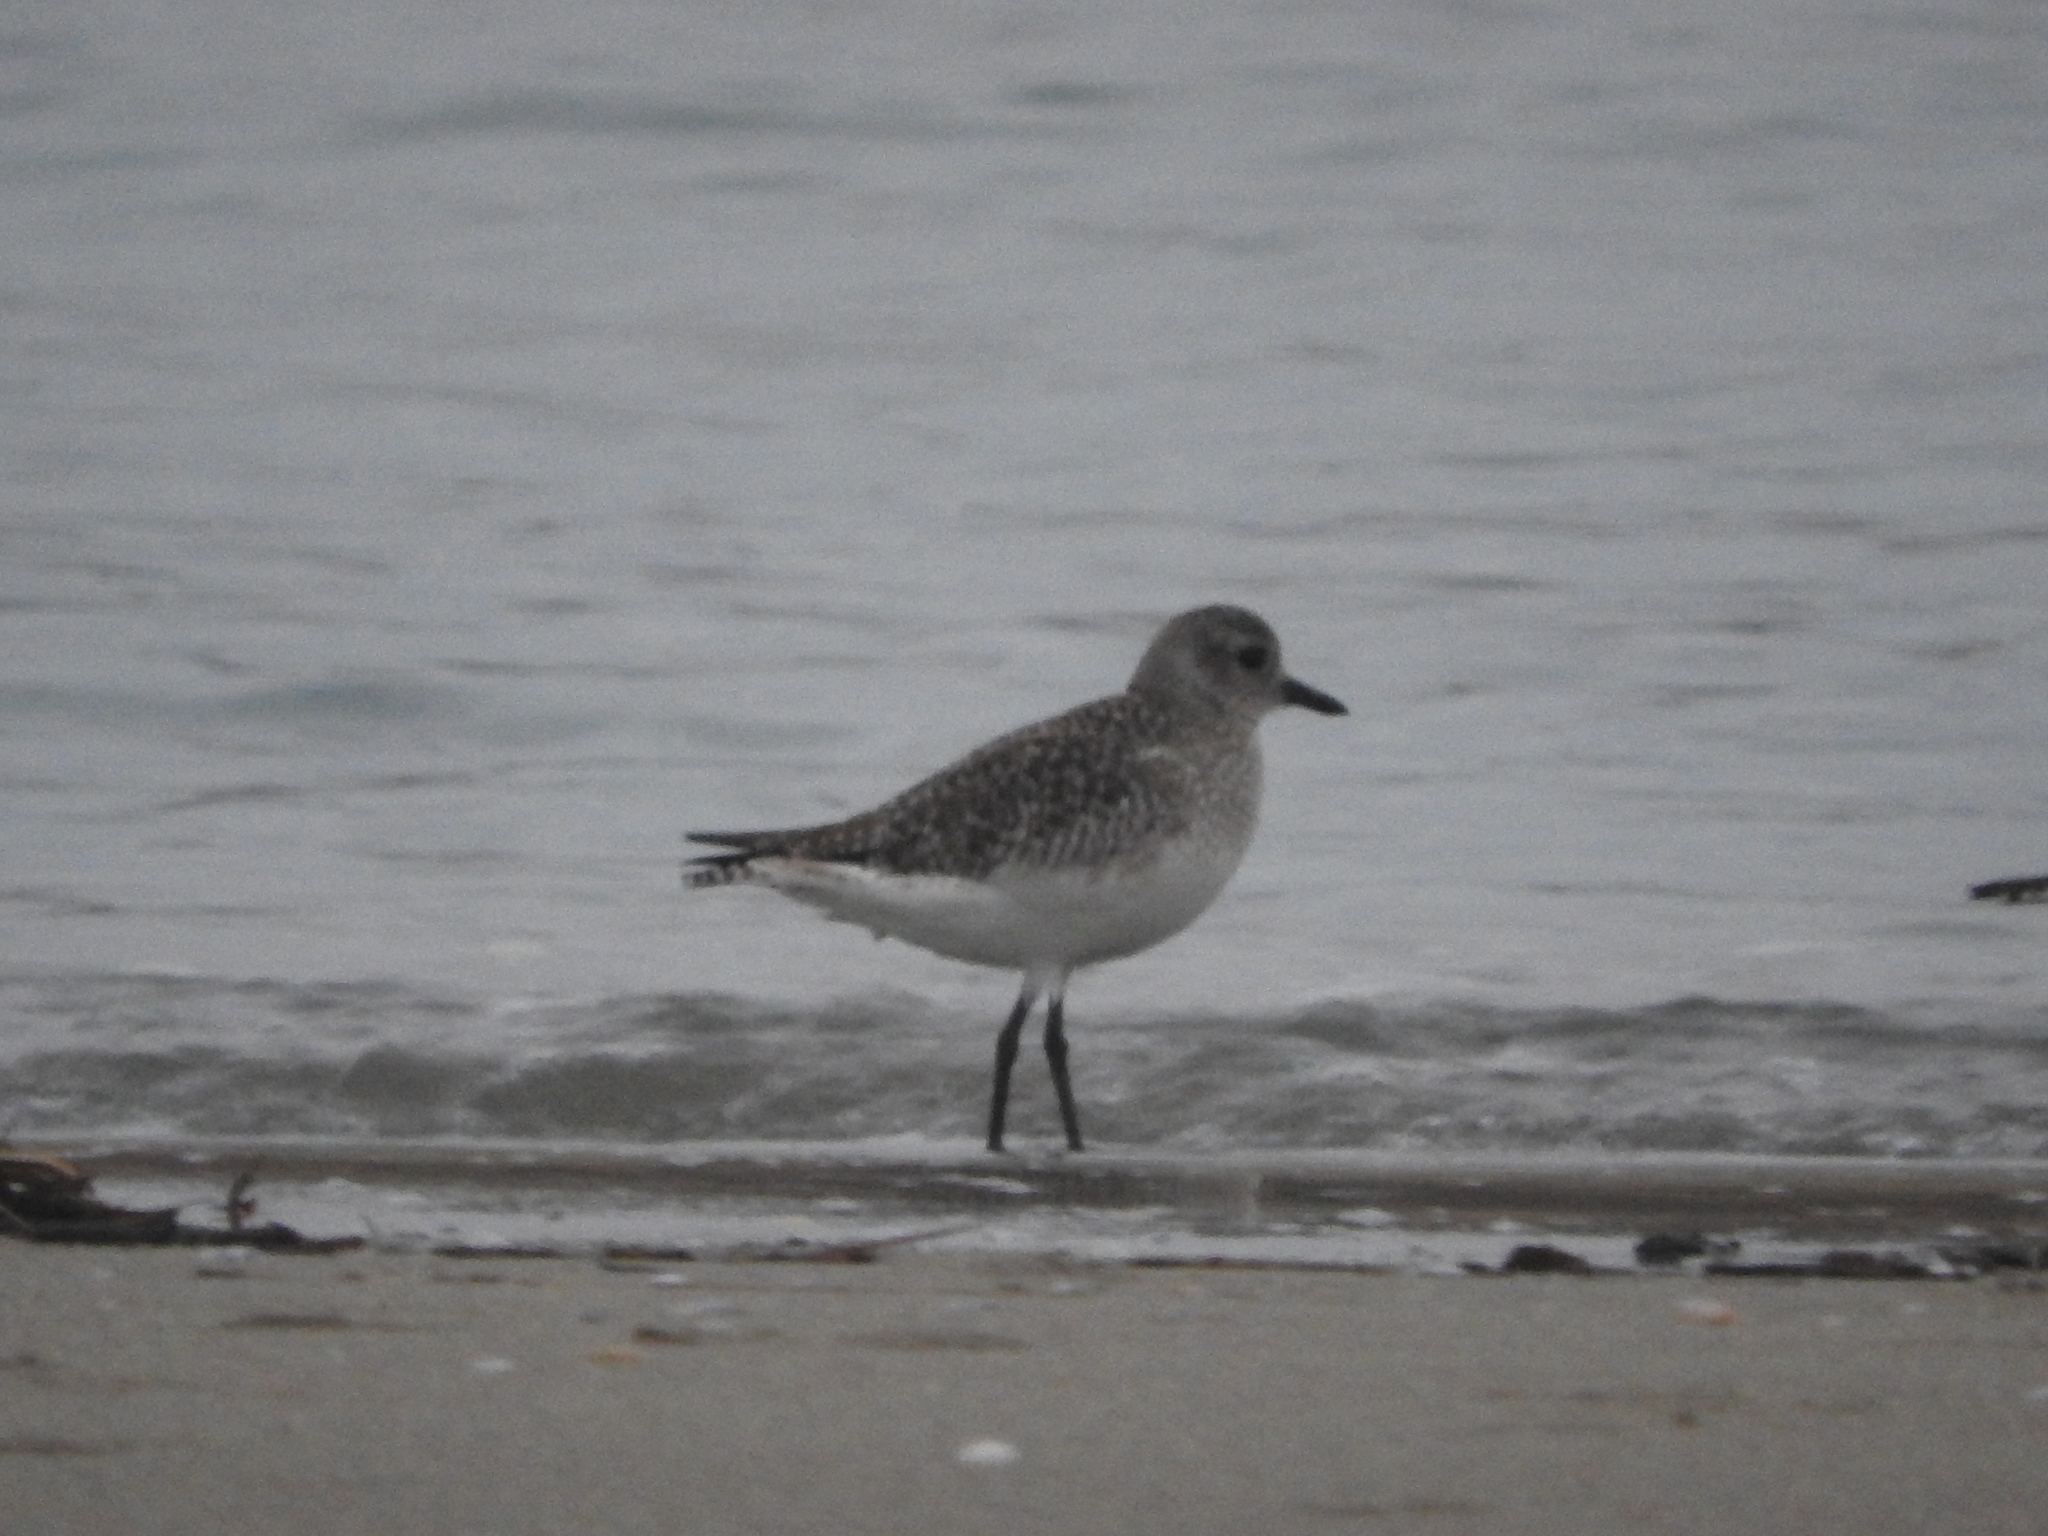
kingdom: Animalia
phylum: Chordata
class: Aves
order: Charadriiformes
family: Charadriidae
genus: Pluvialis
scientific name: Pluvialis squatarola
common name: Grey plover
